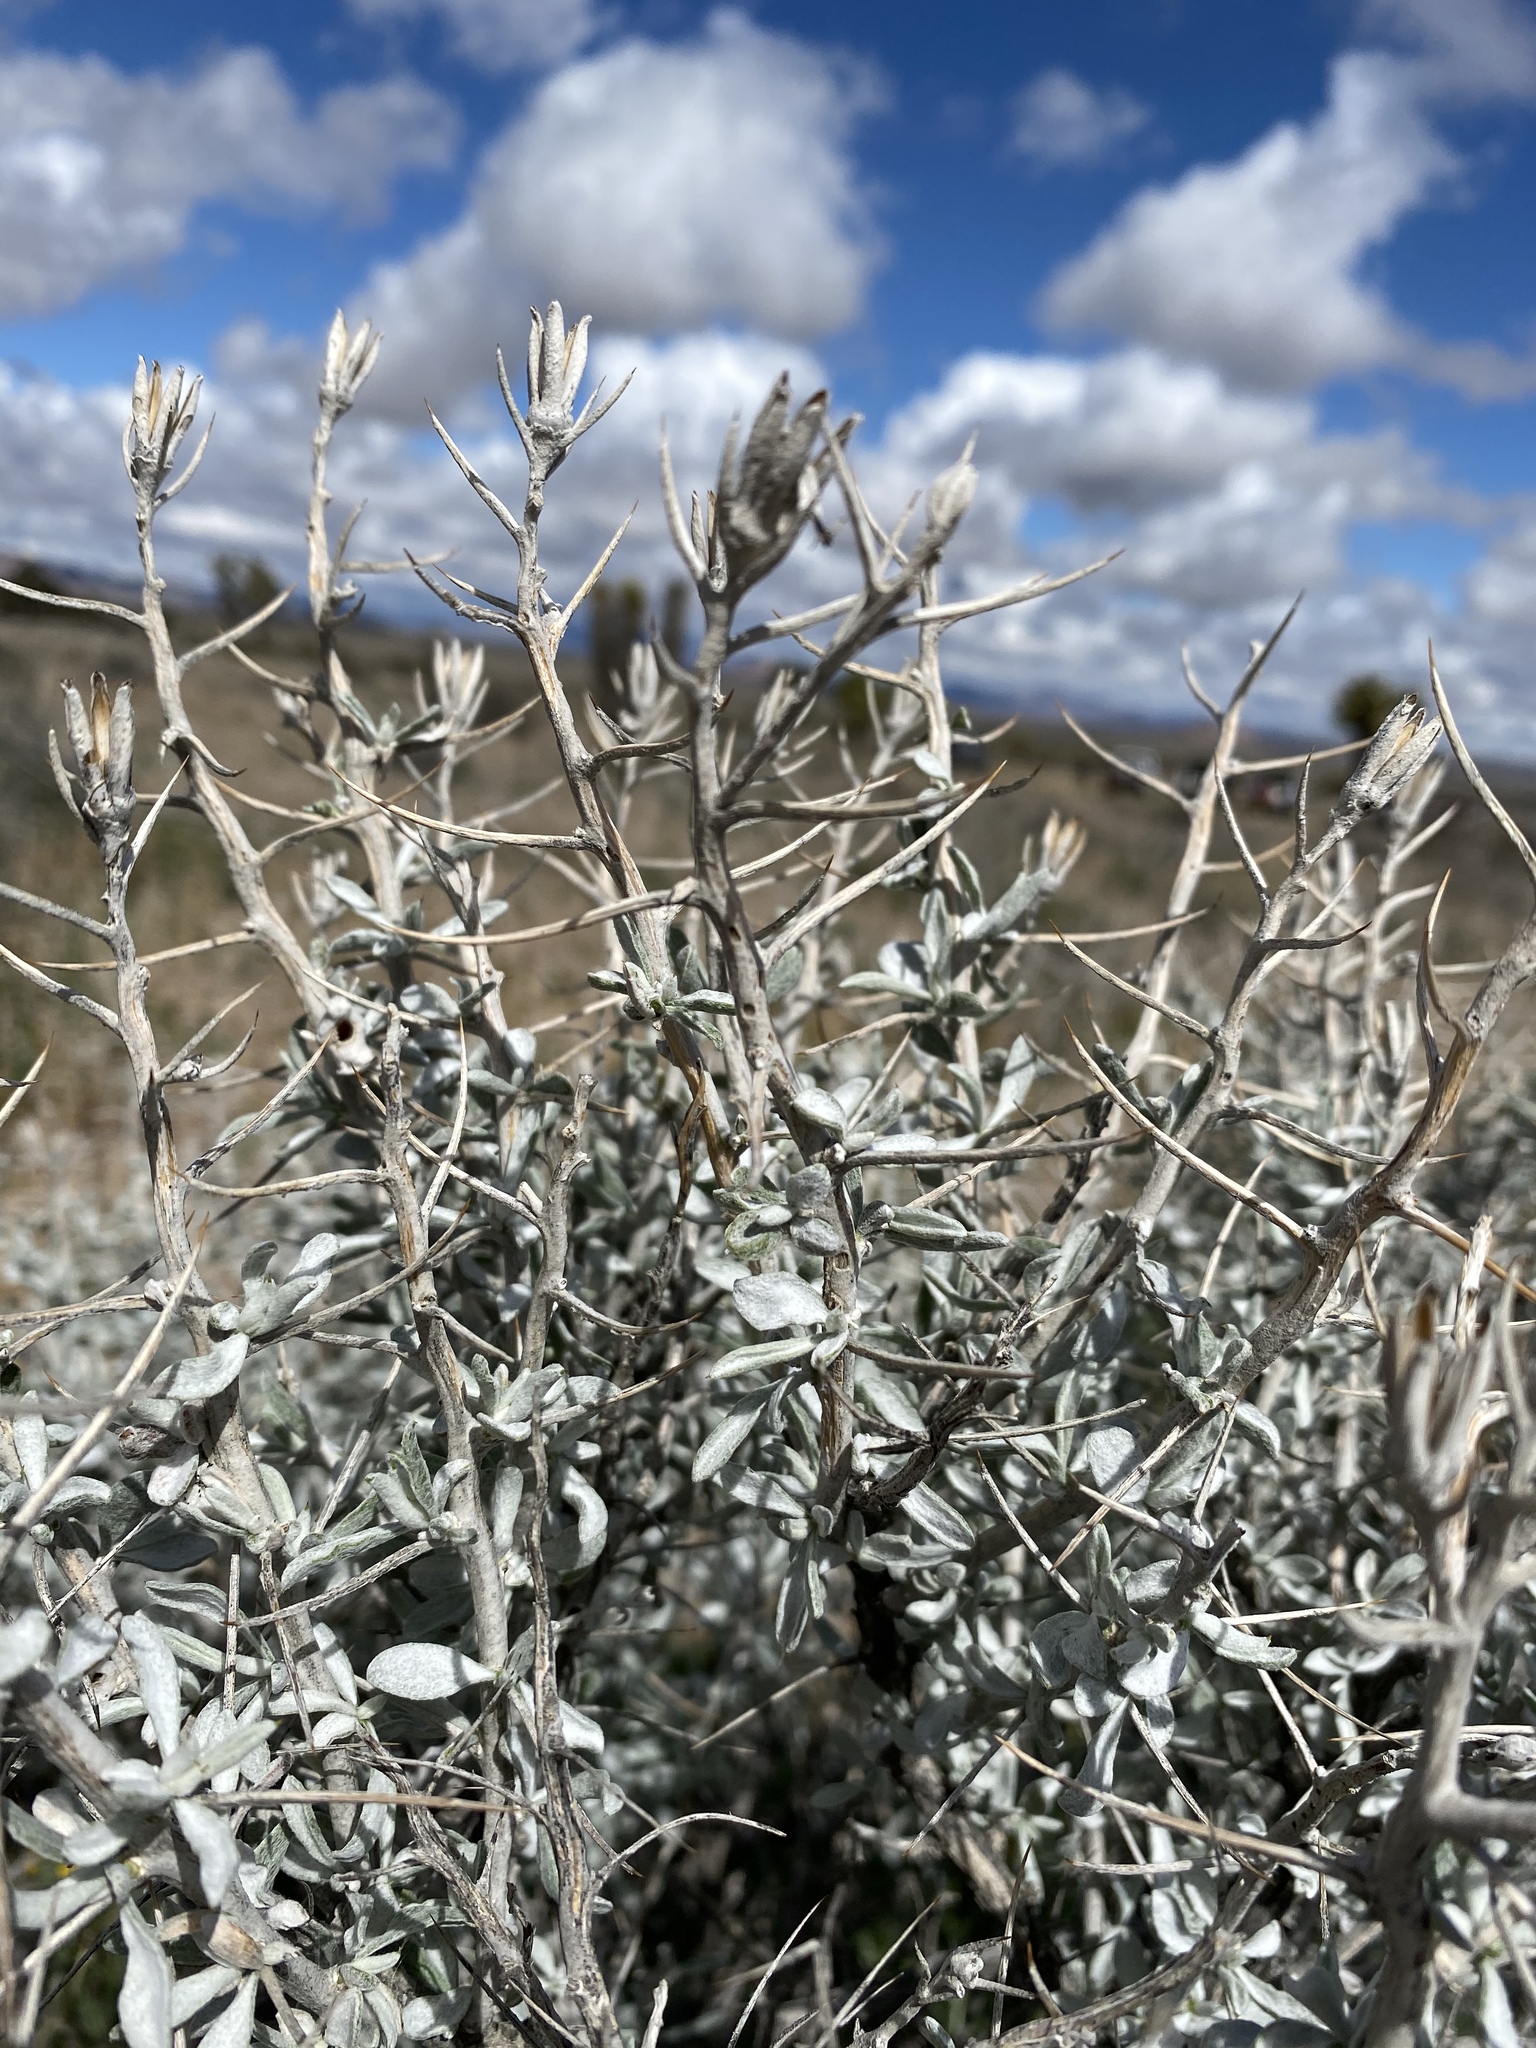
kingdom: Plantae
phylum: Tracheophyta
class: Magnoliopsida
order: Asterales
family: Asteraceae
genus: Tetradymia
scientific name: Tetradymia stenolepis
